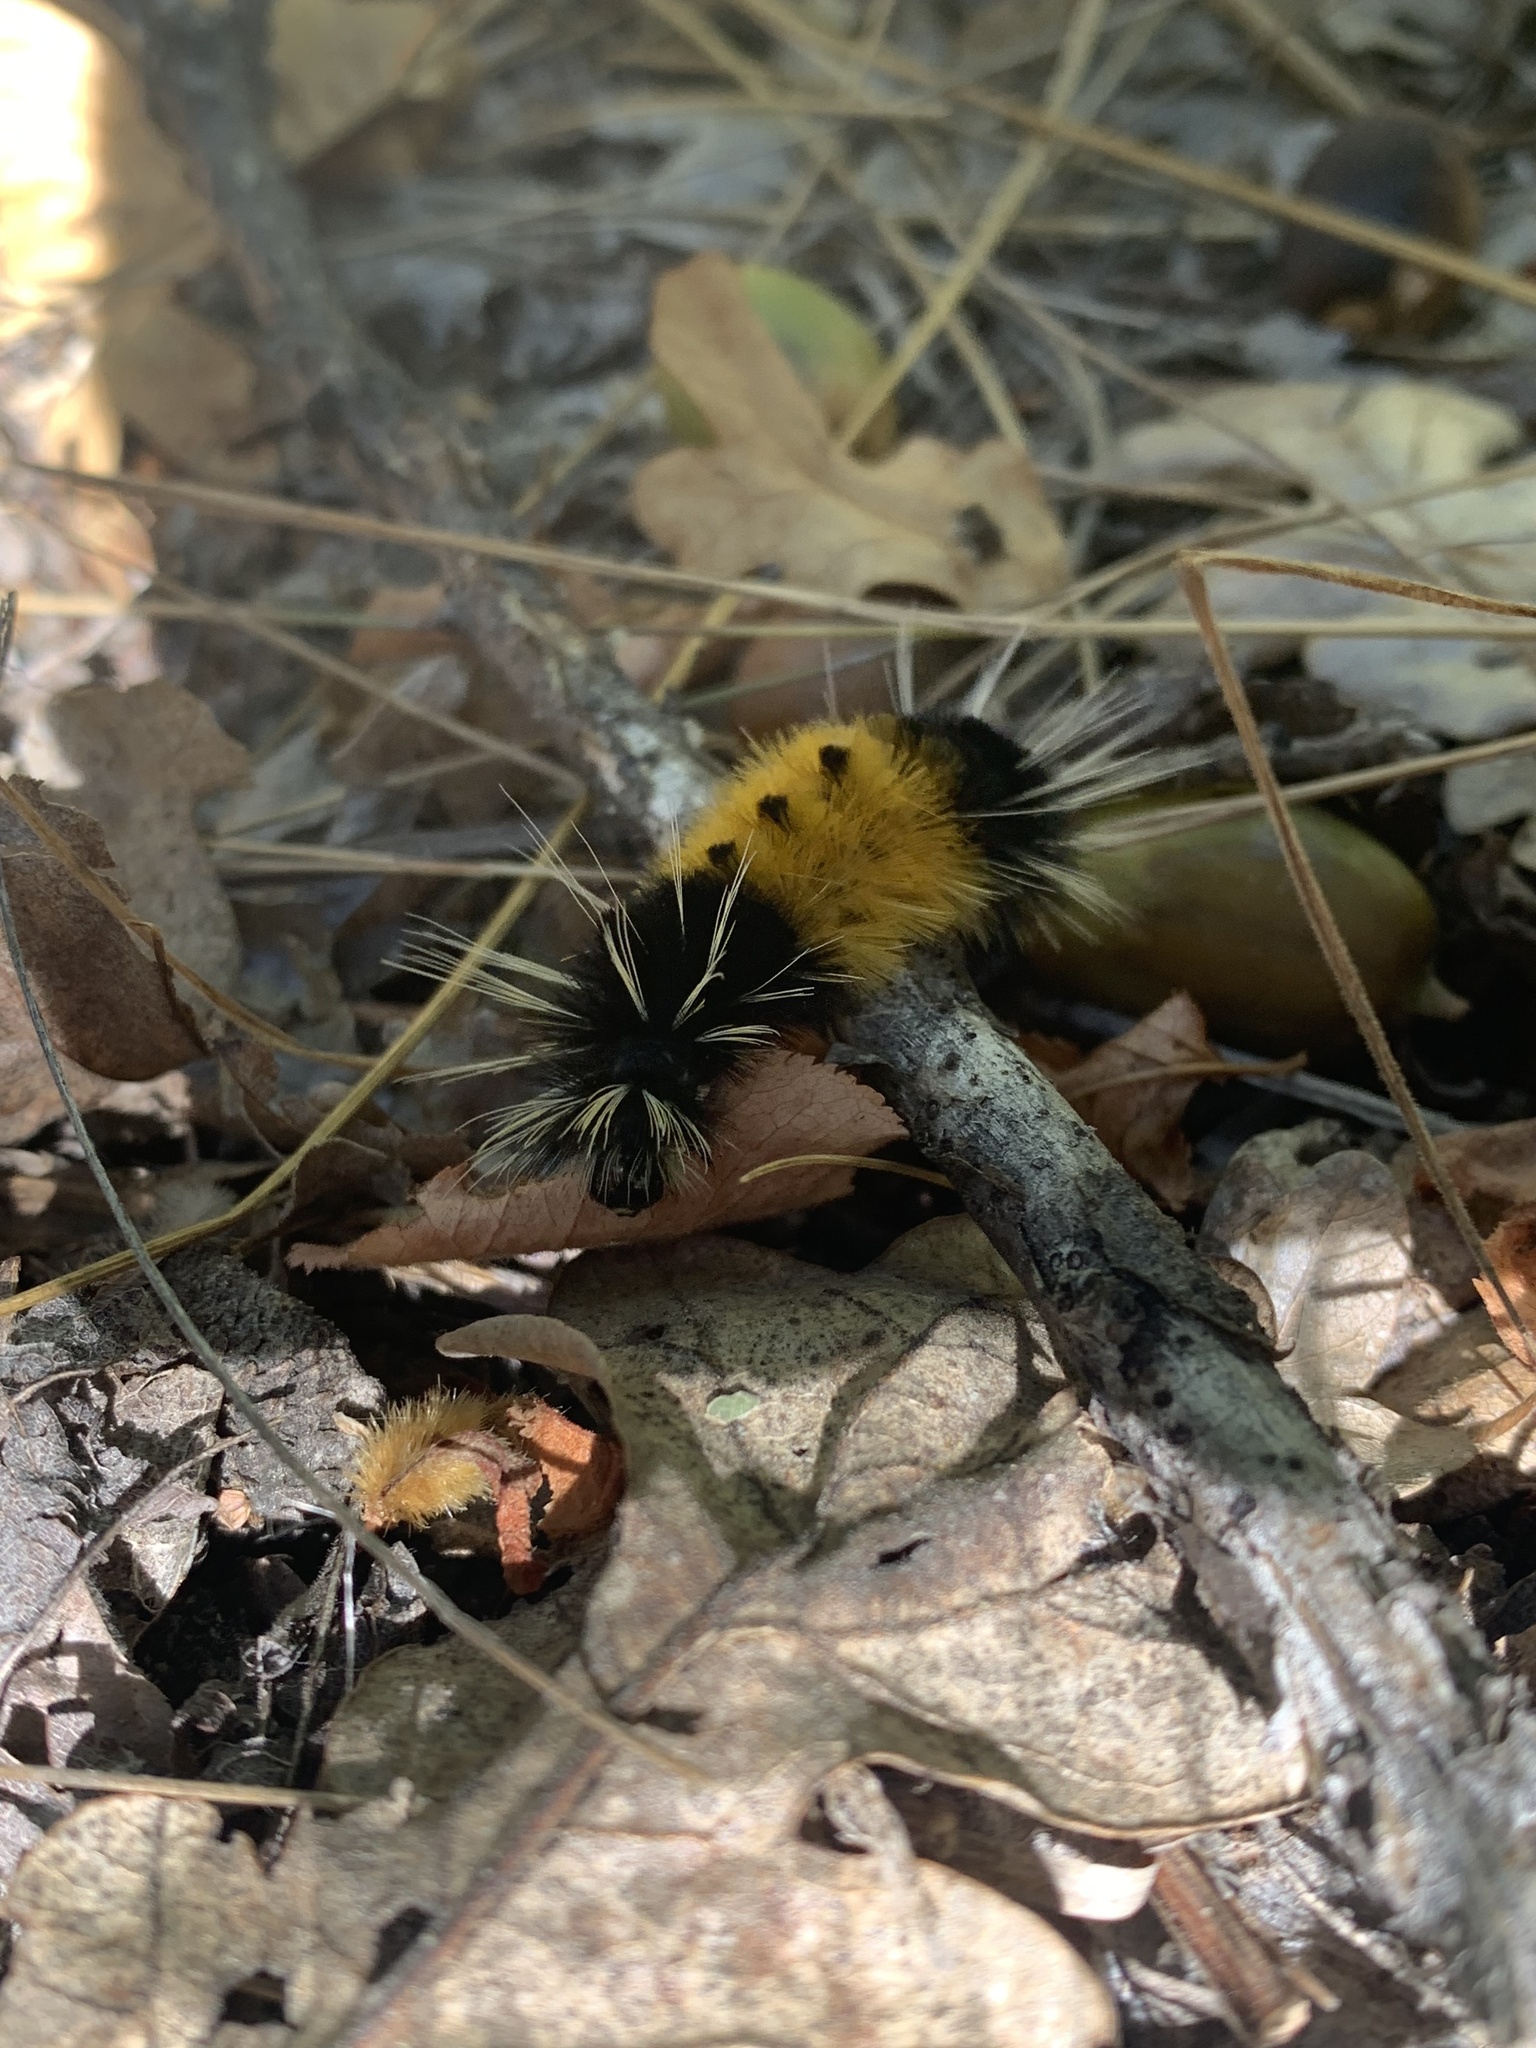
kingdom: Animalia
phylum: Arthropoda
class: Insecta
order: Lepidoptera
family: Erebidae
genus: Lophocampa
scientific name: Lophocampa maculata
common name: Spotted tussock moth
